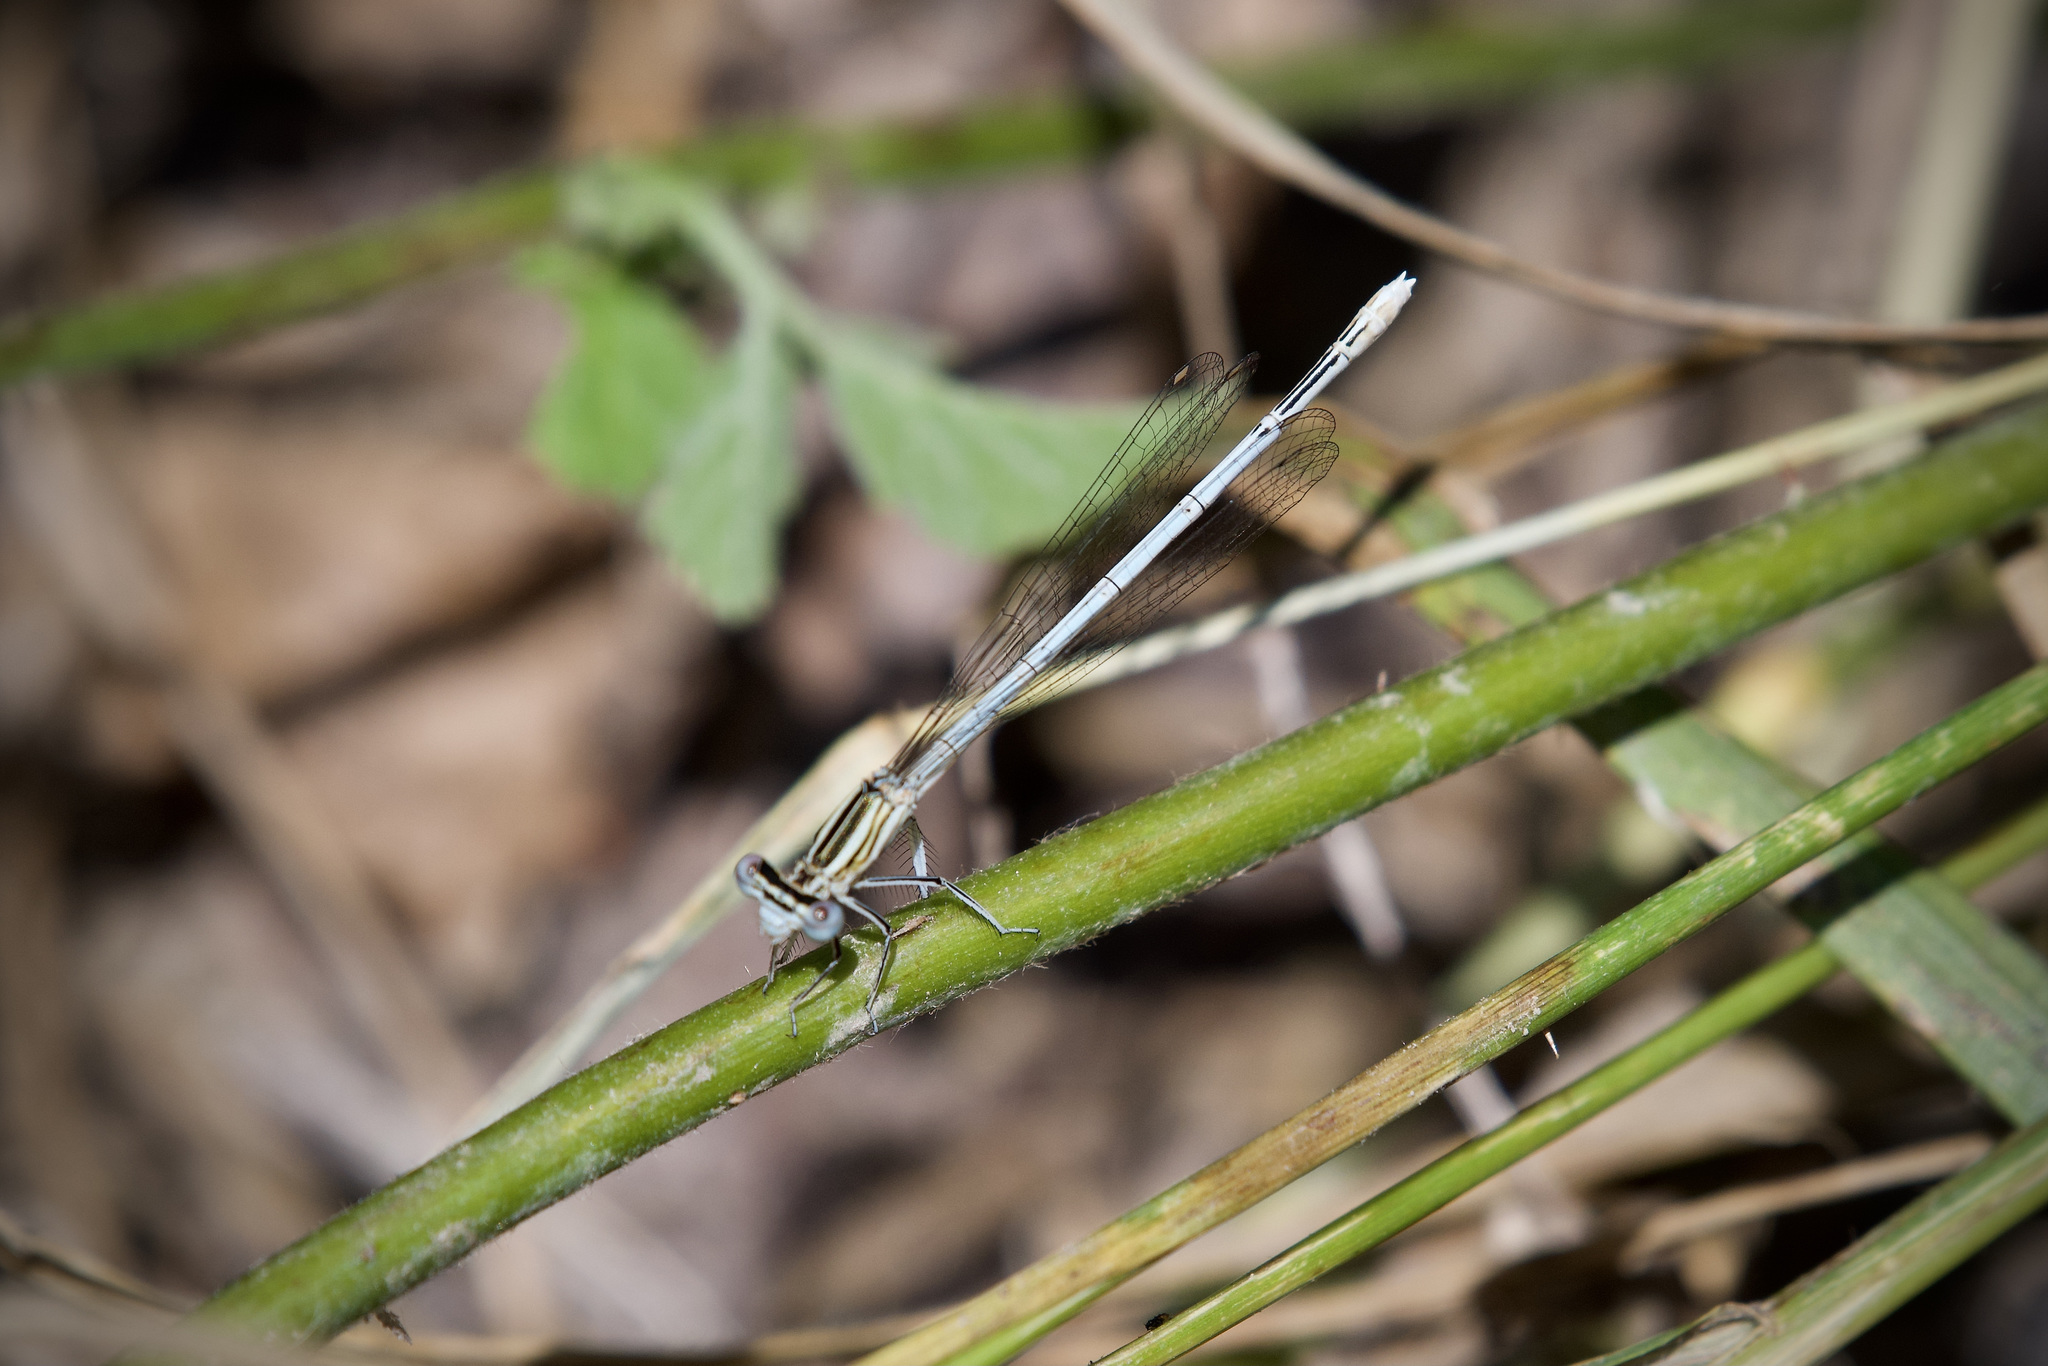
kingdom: Animalia
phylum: Arthropoda
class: Insecta
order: Odonata
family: Platycnemididae
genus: Platycnemis
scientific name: Platycnemis pennipes
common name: White-legged damselfly
